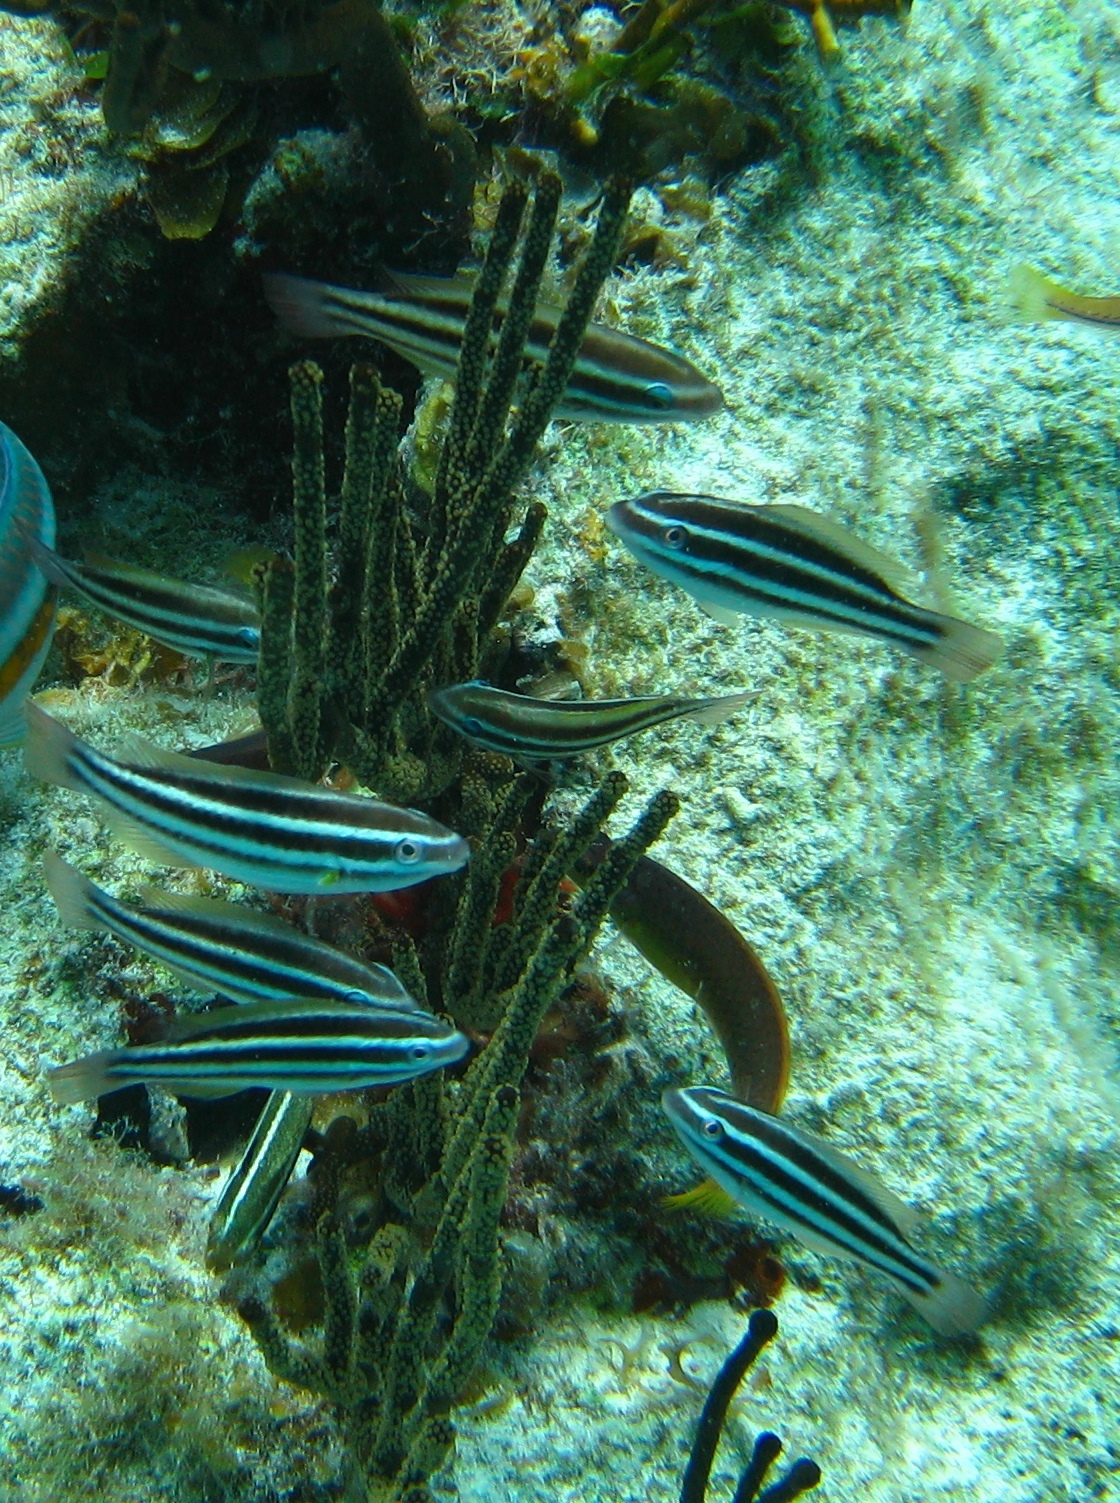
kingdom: Animalia
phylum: Chordata
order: Perciformes
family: Scaridae
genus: Scarus
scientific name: Scarus iseri
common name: Striped parrotfish
